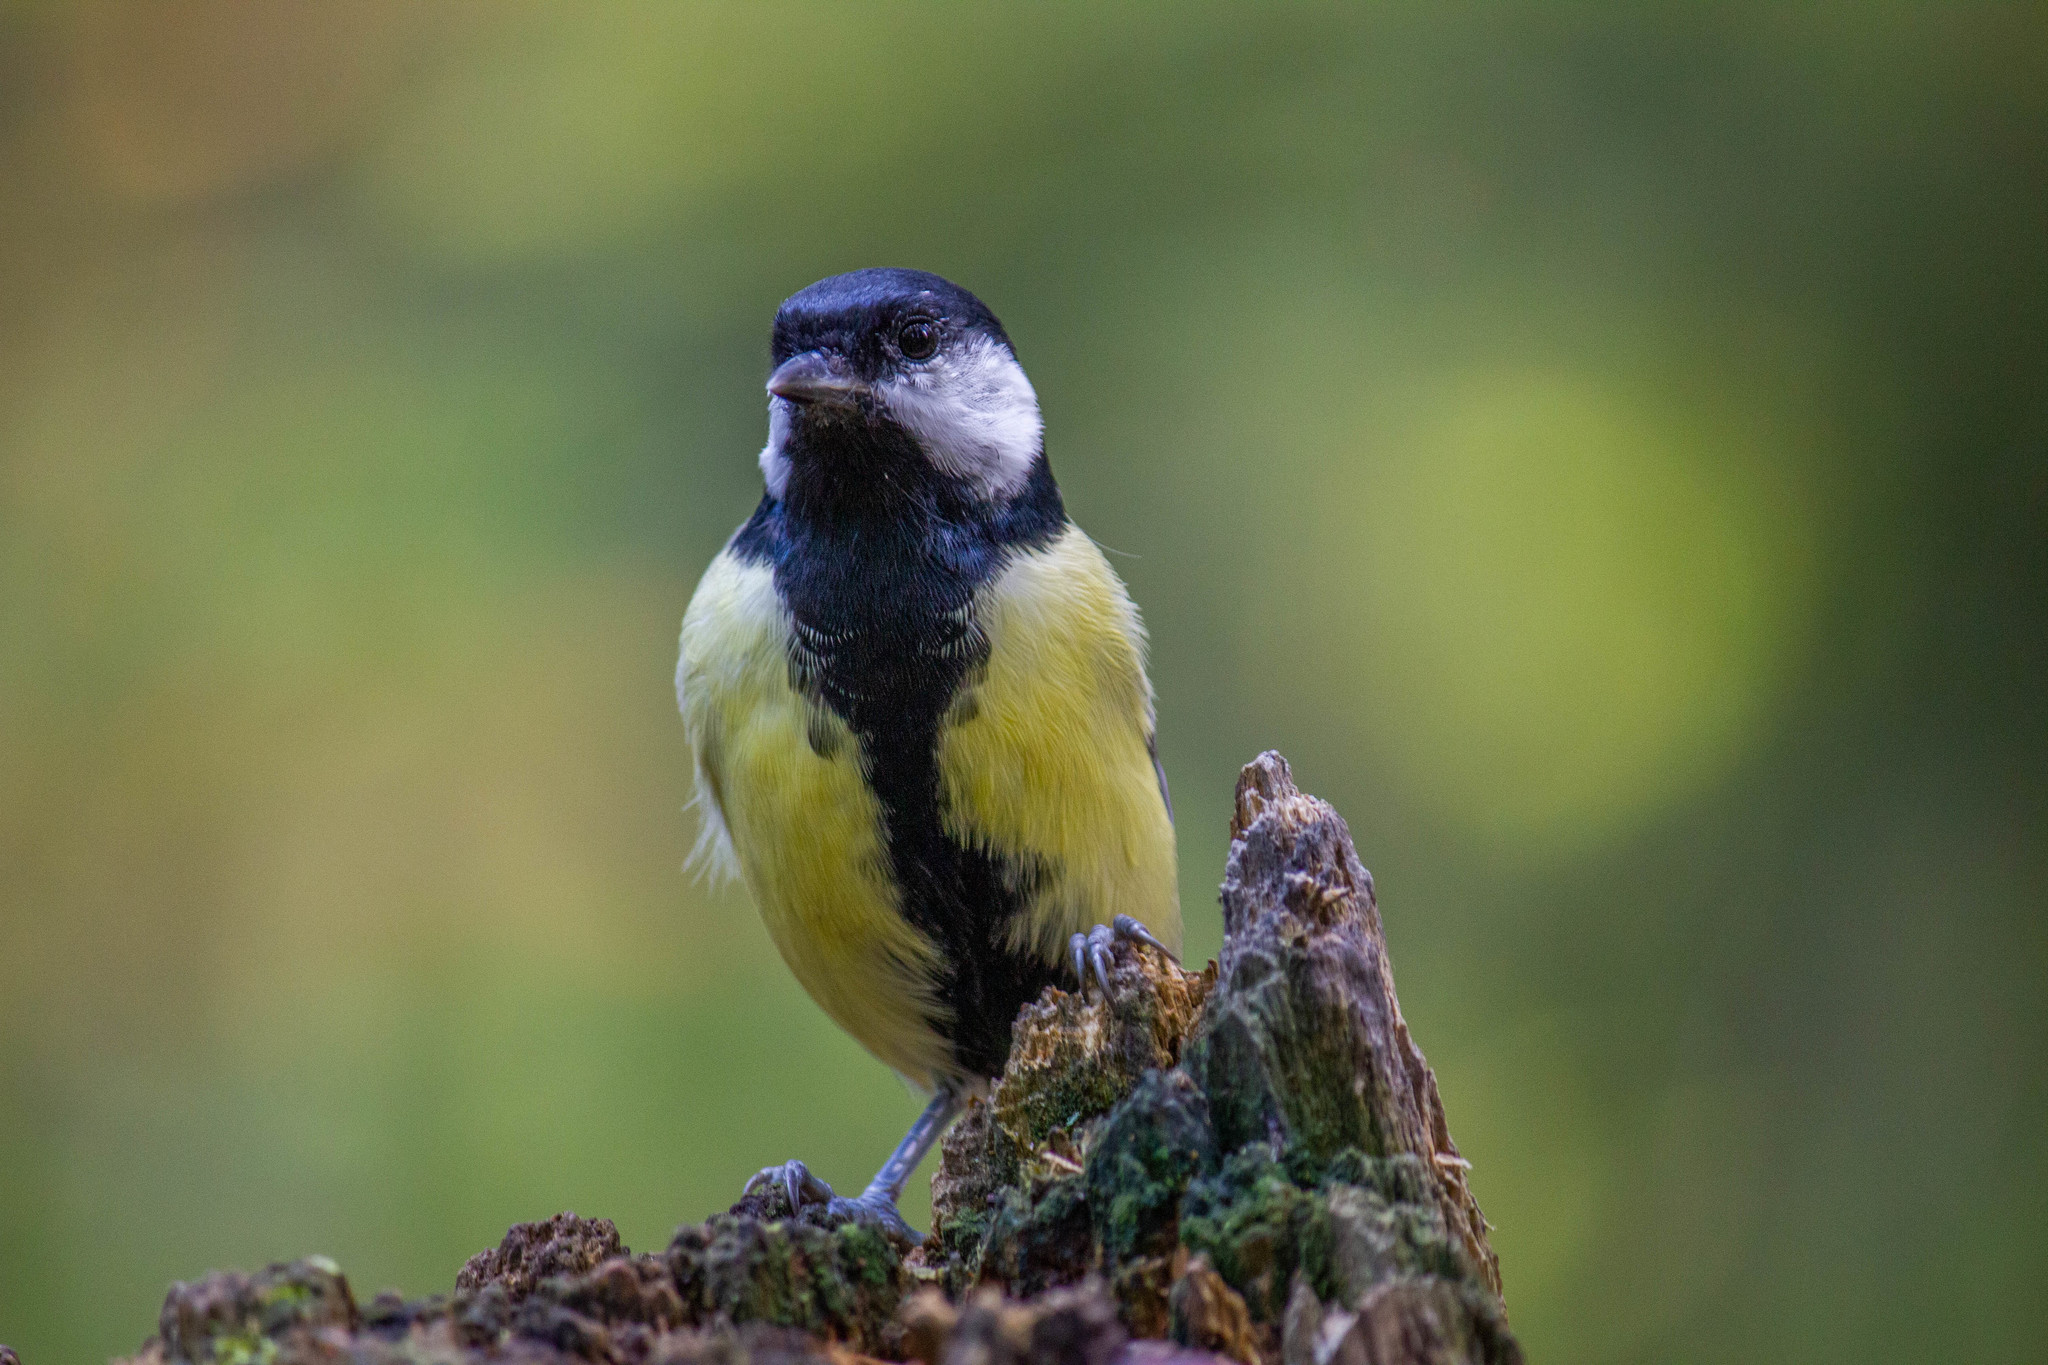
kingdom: Animalia
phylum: Chordata
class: Aves
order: Passeriformes
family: Paridae
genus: Parus
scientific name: Parus major
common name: Great tit
